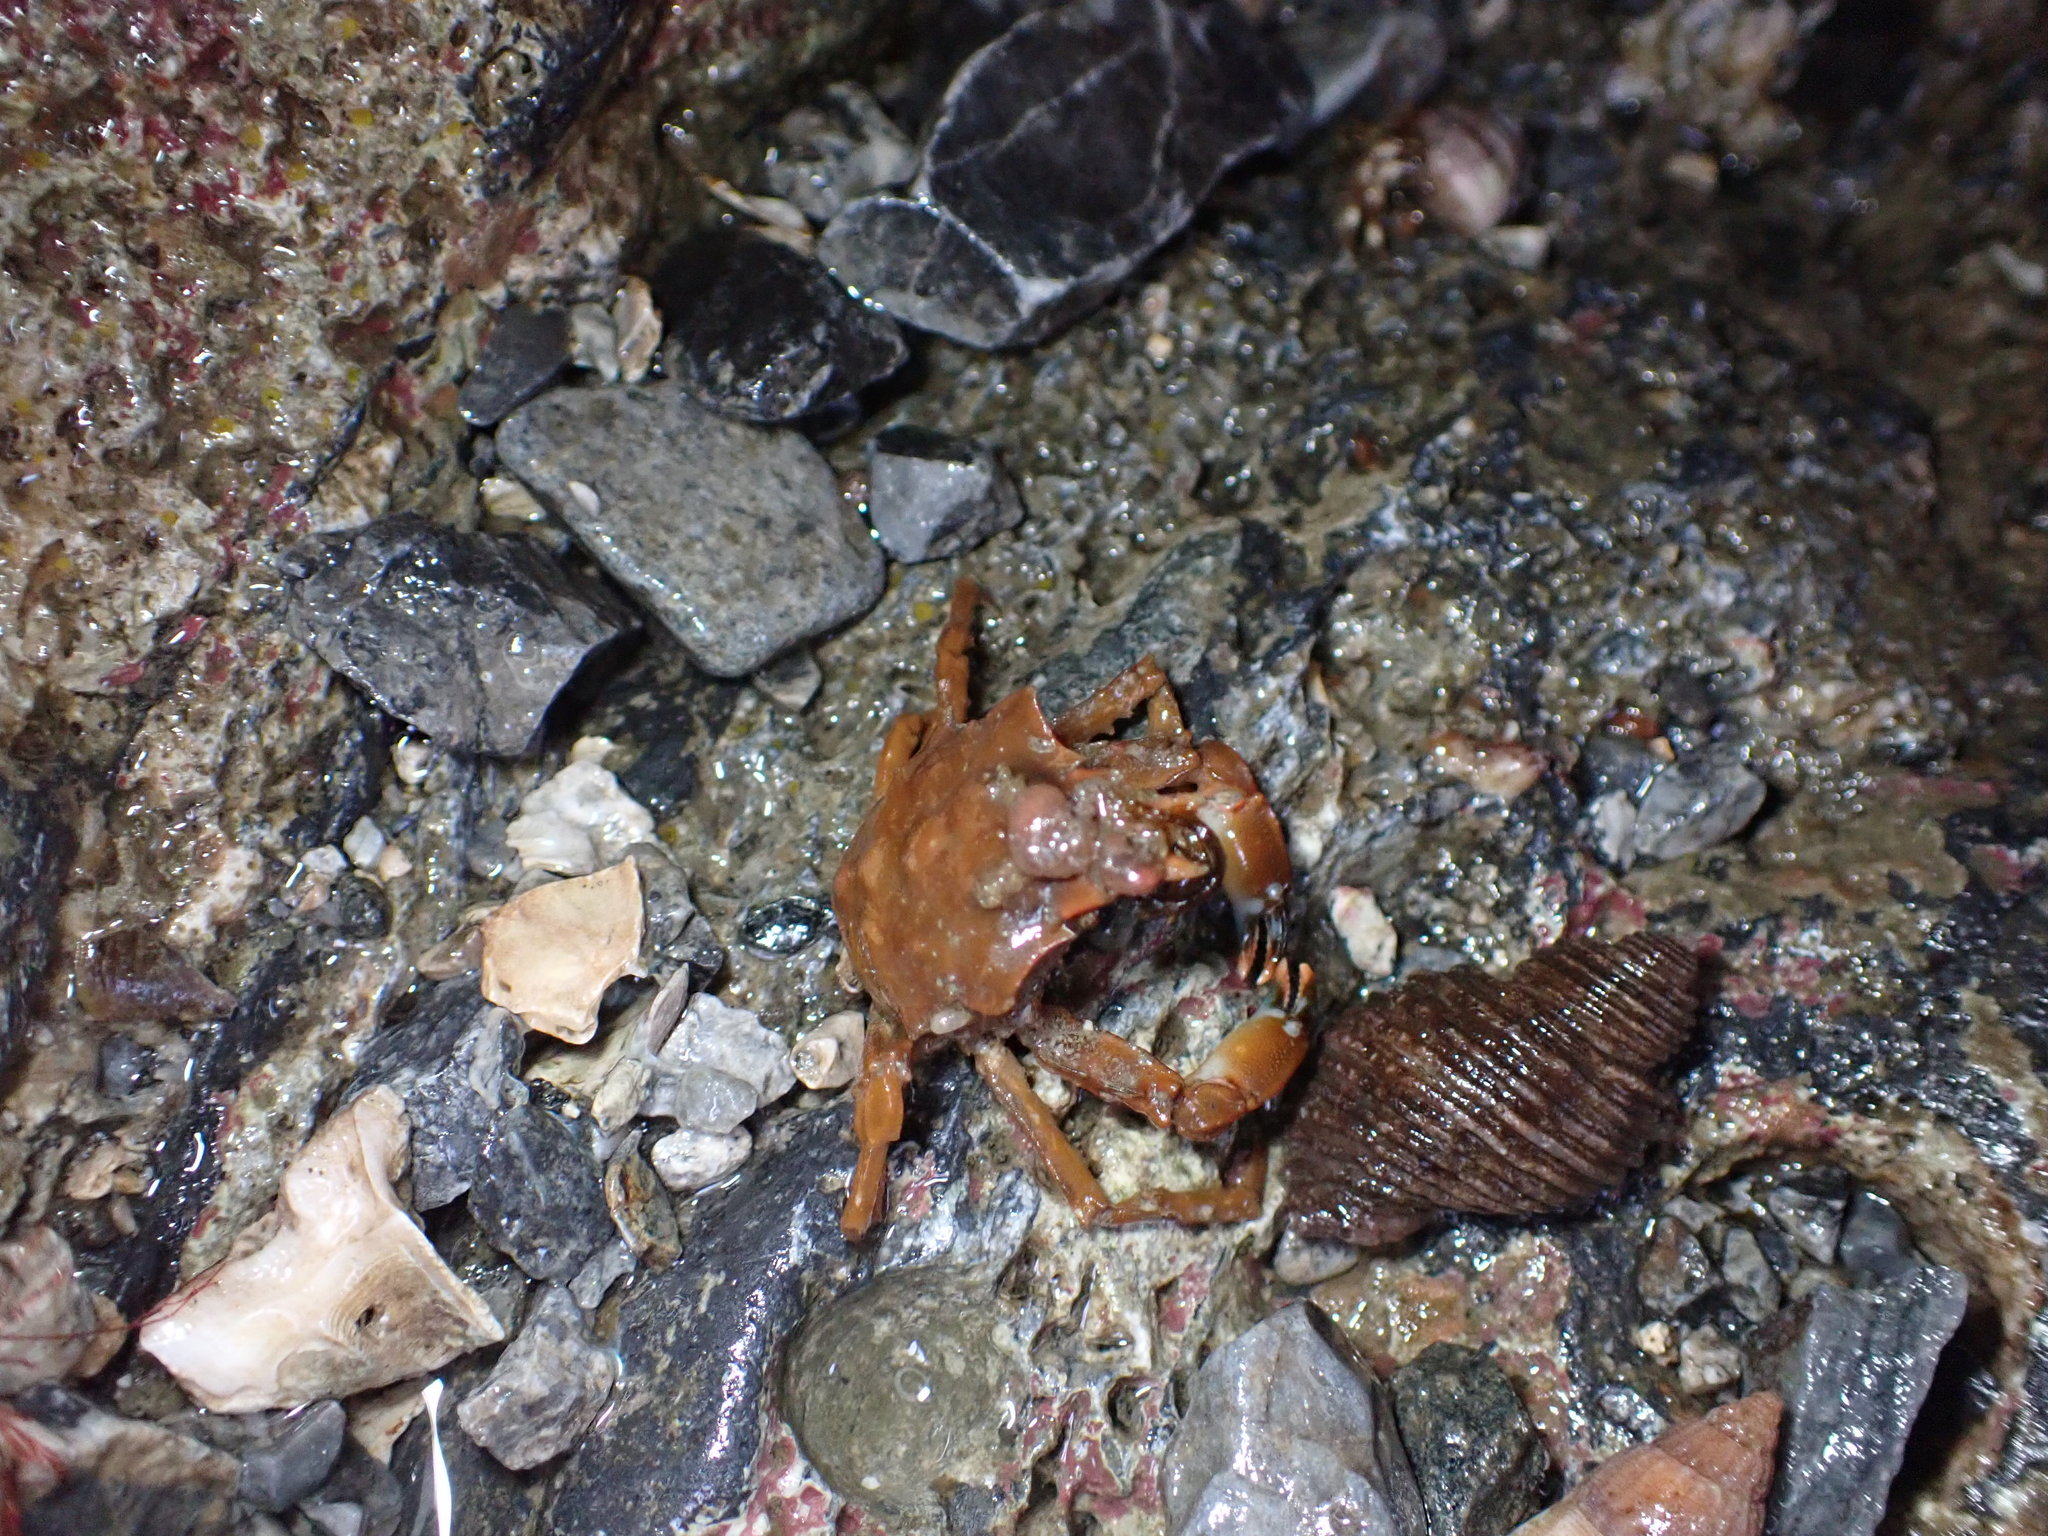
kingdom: Animalia
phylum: Arthropoda
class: Malacostraca
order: Decapoda
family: Epialtidae
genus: Pugettia
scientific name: Pugettia gracilis
